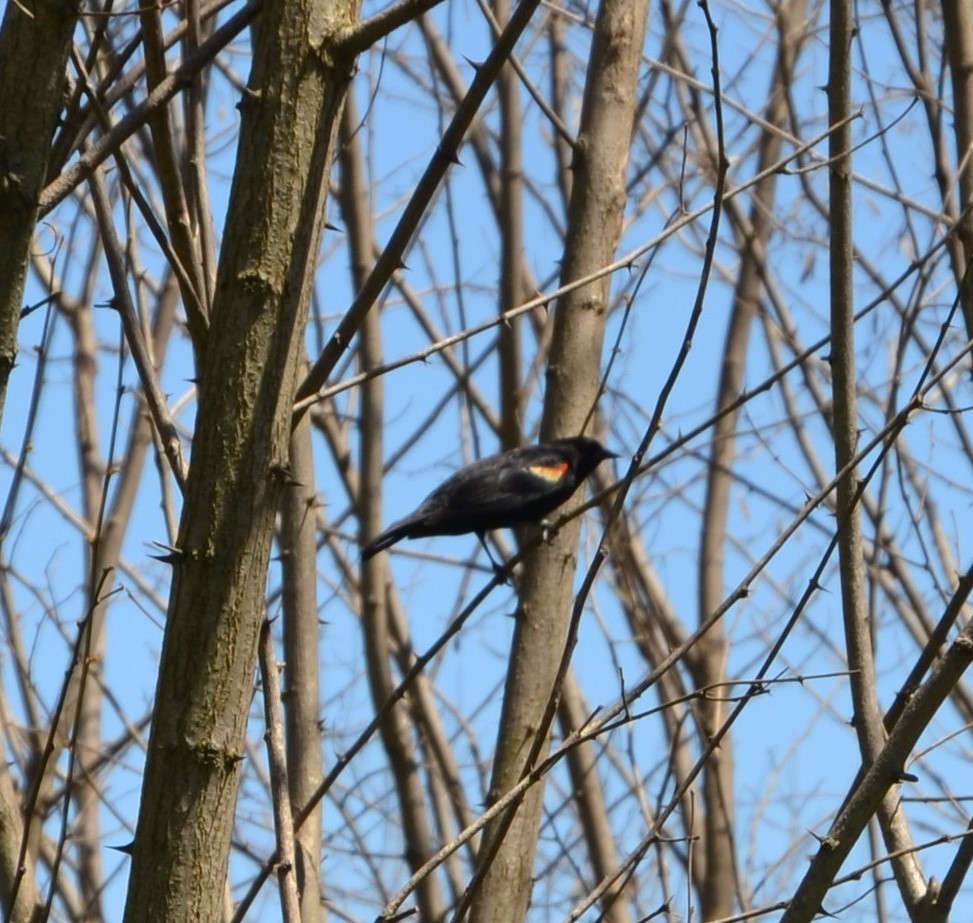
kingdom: Animalia
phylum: Chordata
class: Aves
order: Passeriformes
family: Icteridae
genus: Agelaius
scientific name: Agelaius phoeniceus
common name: Red-winged blackbird
